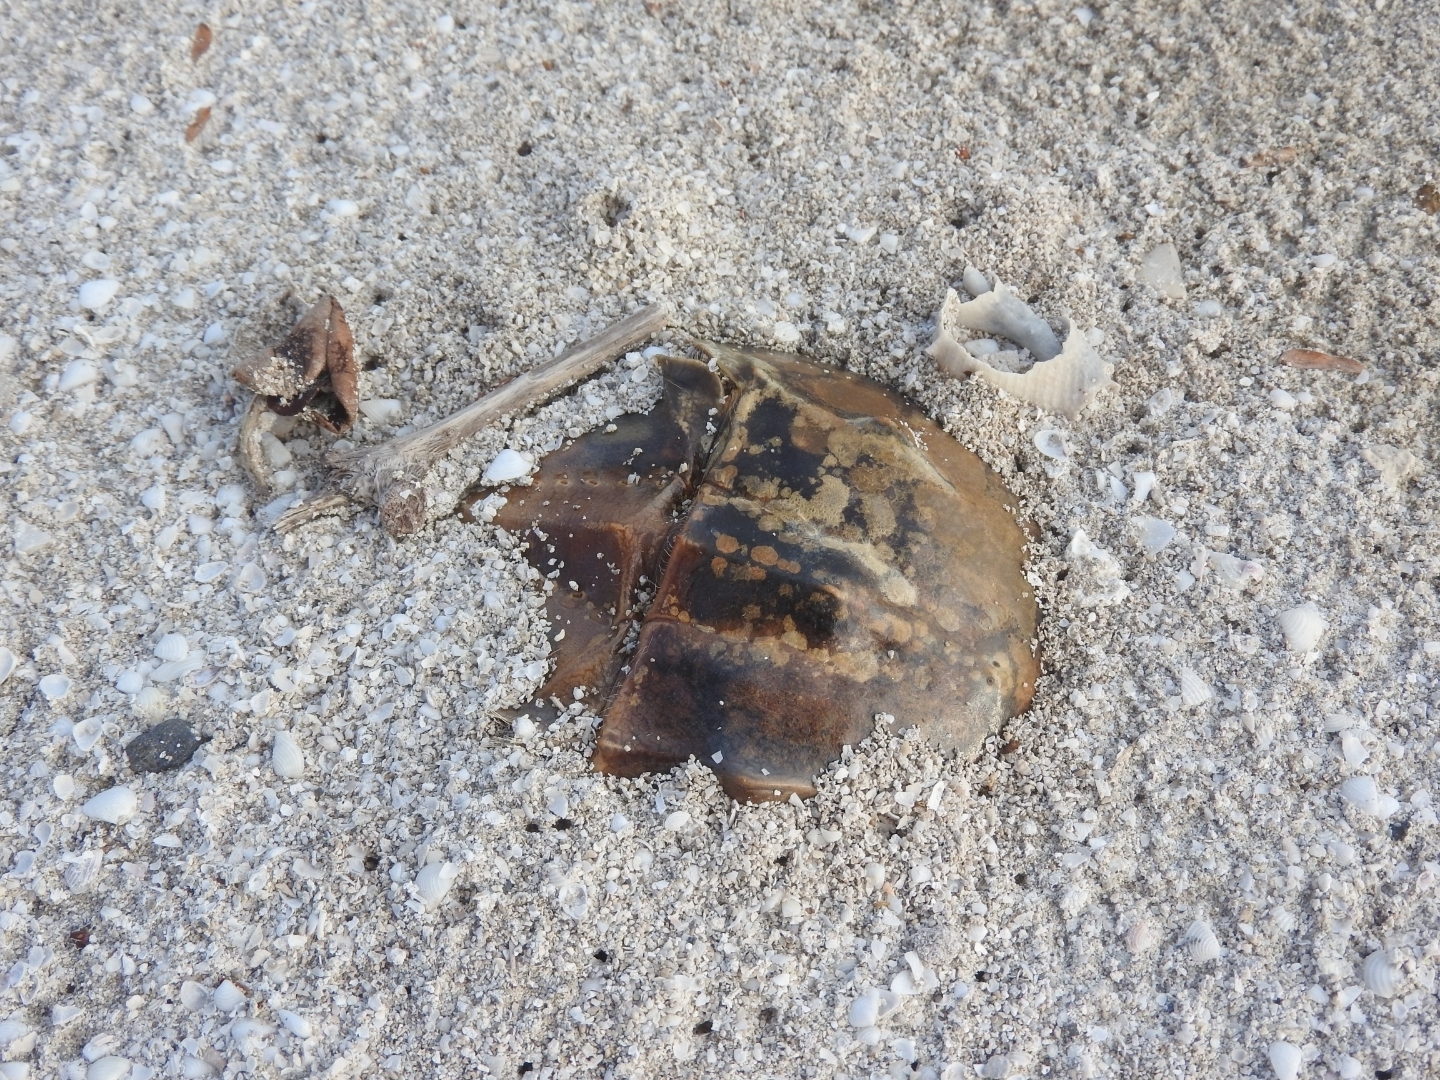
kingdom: Animalia
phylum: Arthropoda
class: Merostomata
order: Xiphosurida
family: Limulidae
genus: Limulus
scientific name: Limulus polyphemus
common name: Horseshoe crab
